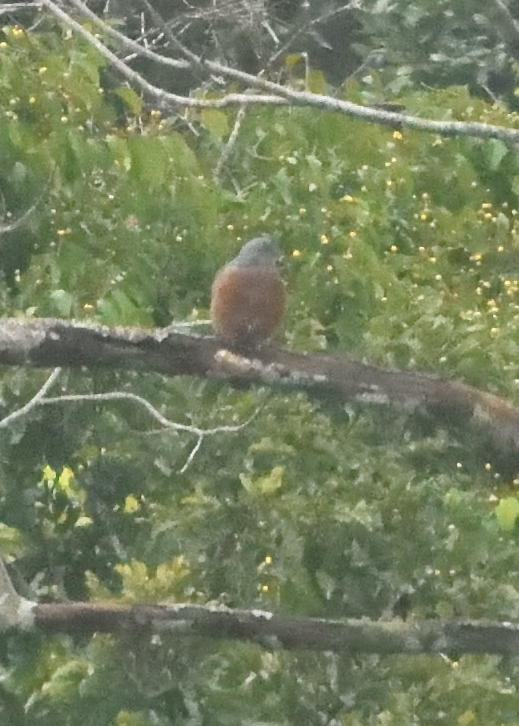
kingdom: Animalia
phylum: Chordata
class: Aves
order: Accipitriformes
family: Accipitridae
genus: Harpagus
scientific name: Harpagus bidentatus
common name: Double-toothed kite
